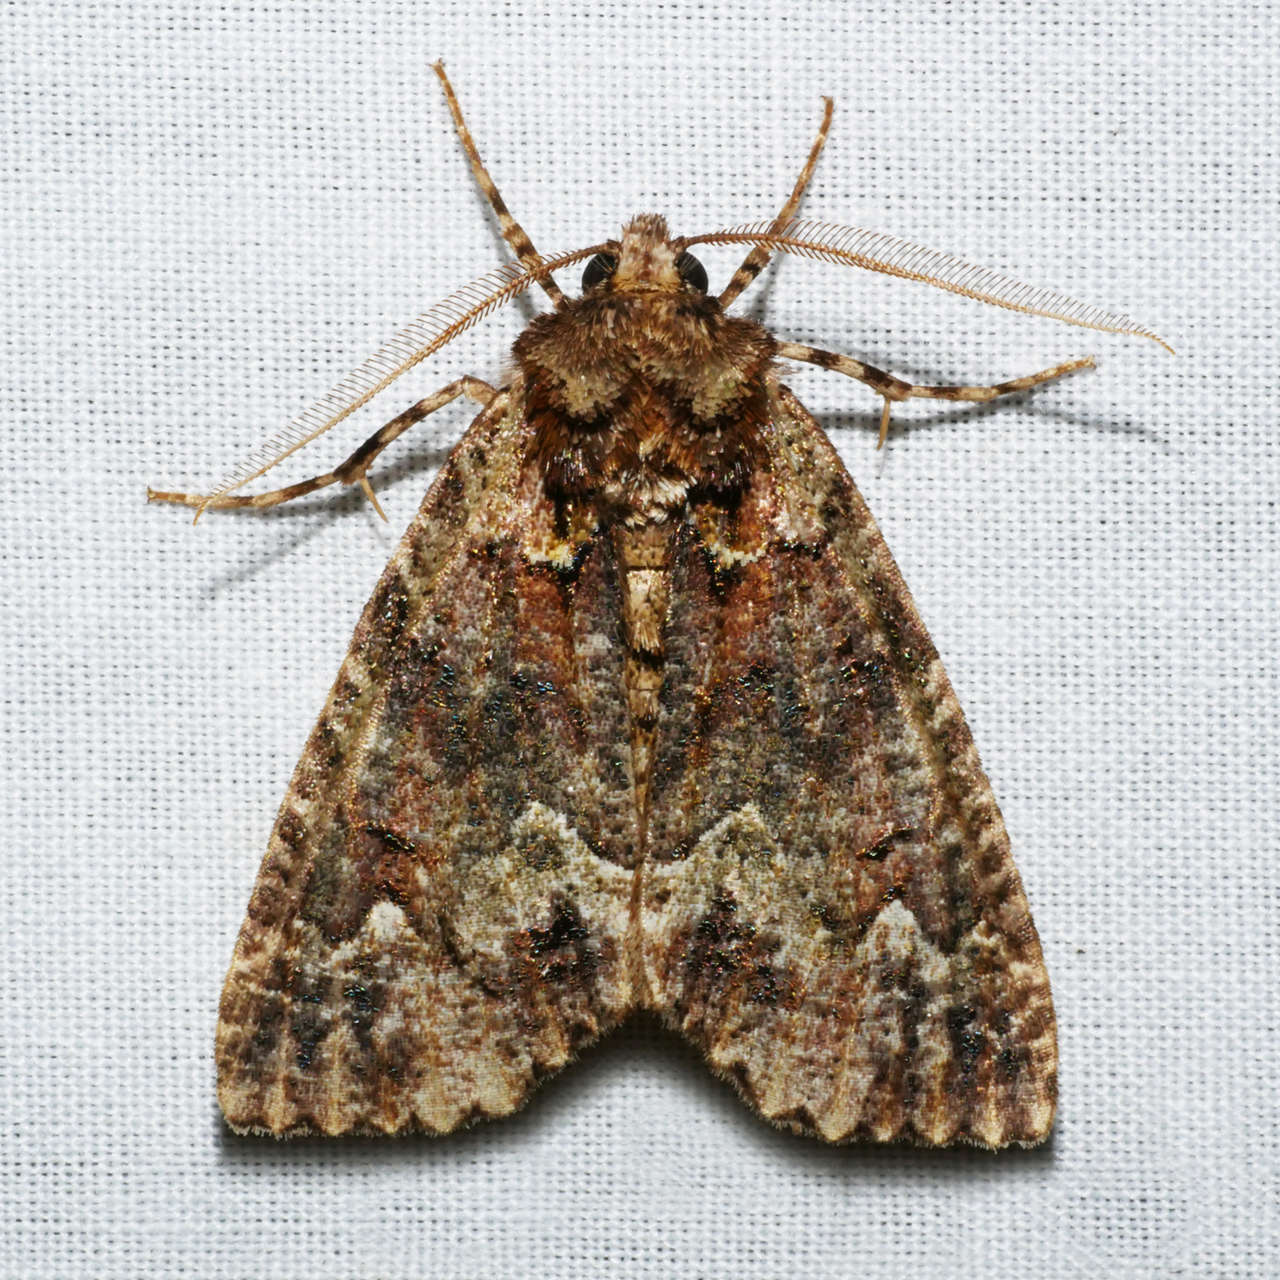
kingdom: Animalia
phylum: Arthropoda
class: Insecta
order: Lepidoptera
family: Geometridae
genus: Chlenias
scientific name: Chlenias ochrocrana
